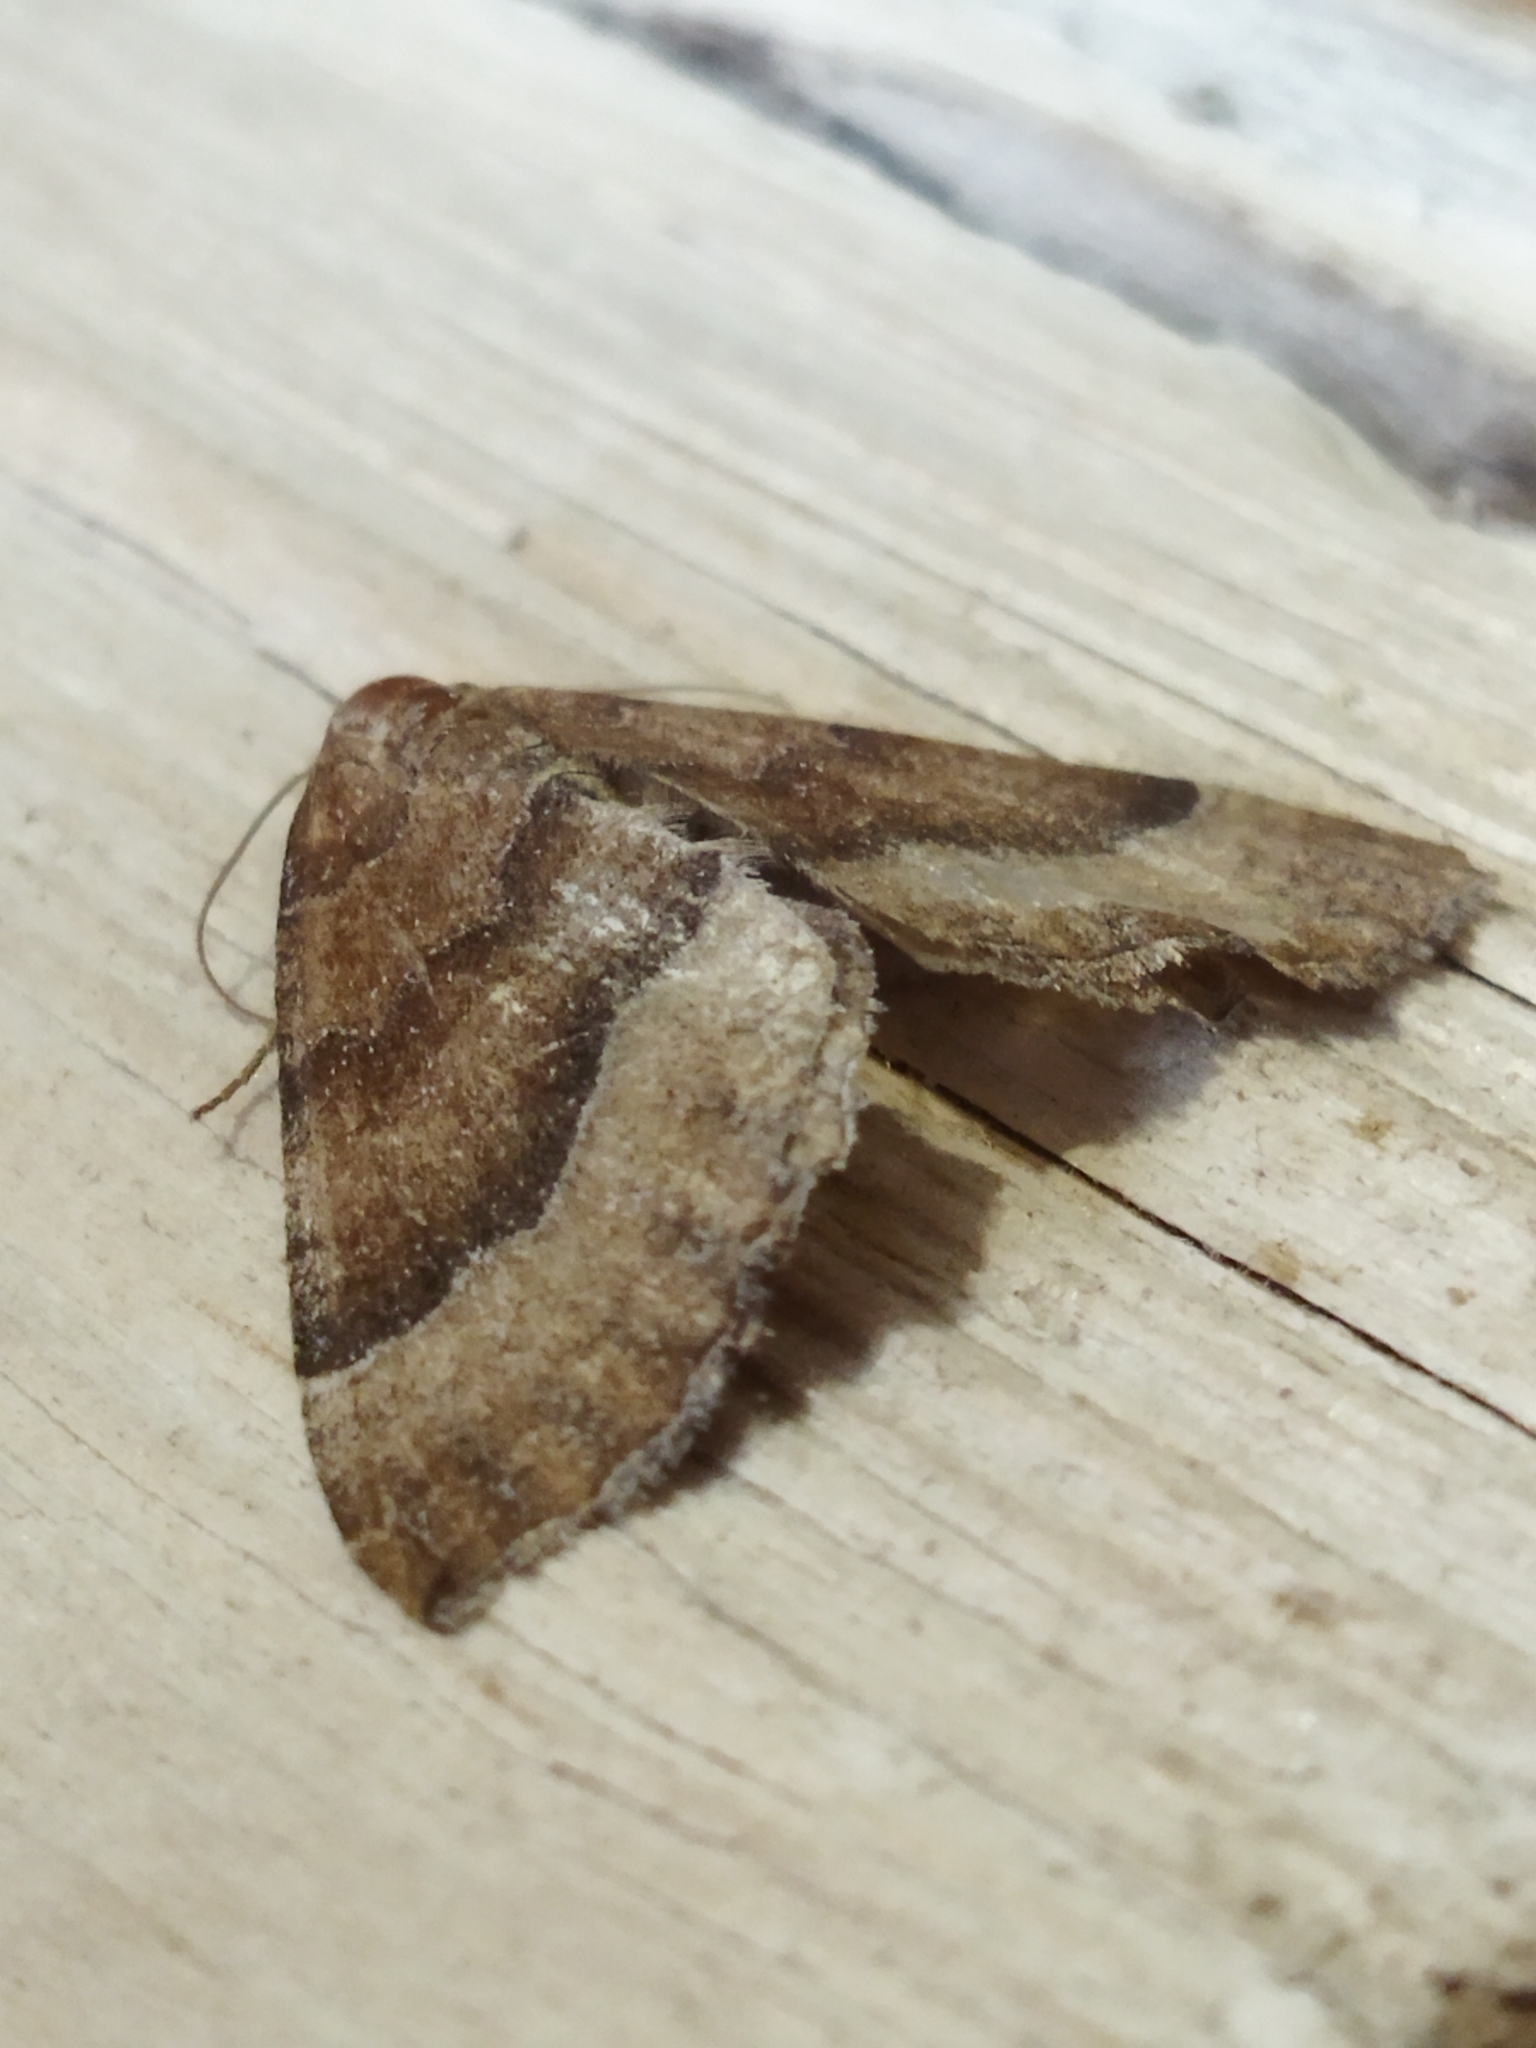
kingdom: Animalia
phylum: Arthropoda
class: Insecta
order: Lepidoptera
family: Geometridae
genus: Larentia
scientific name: Larentia clavaria
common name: Mallow
